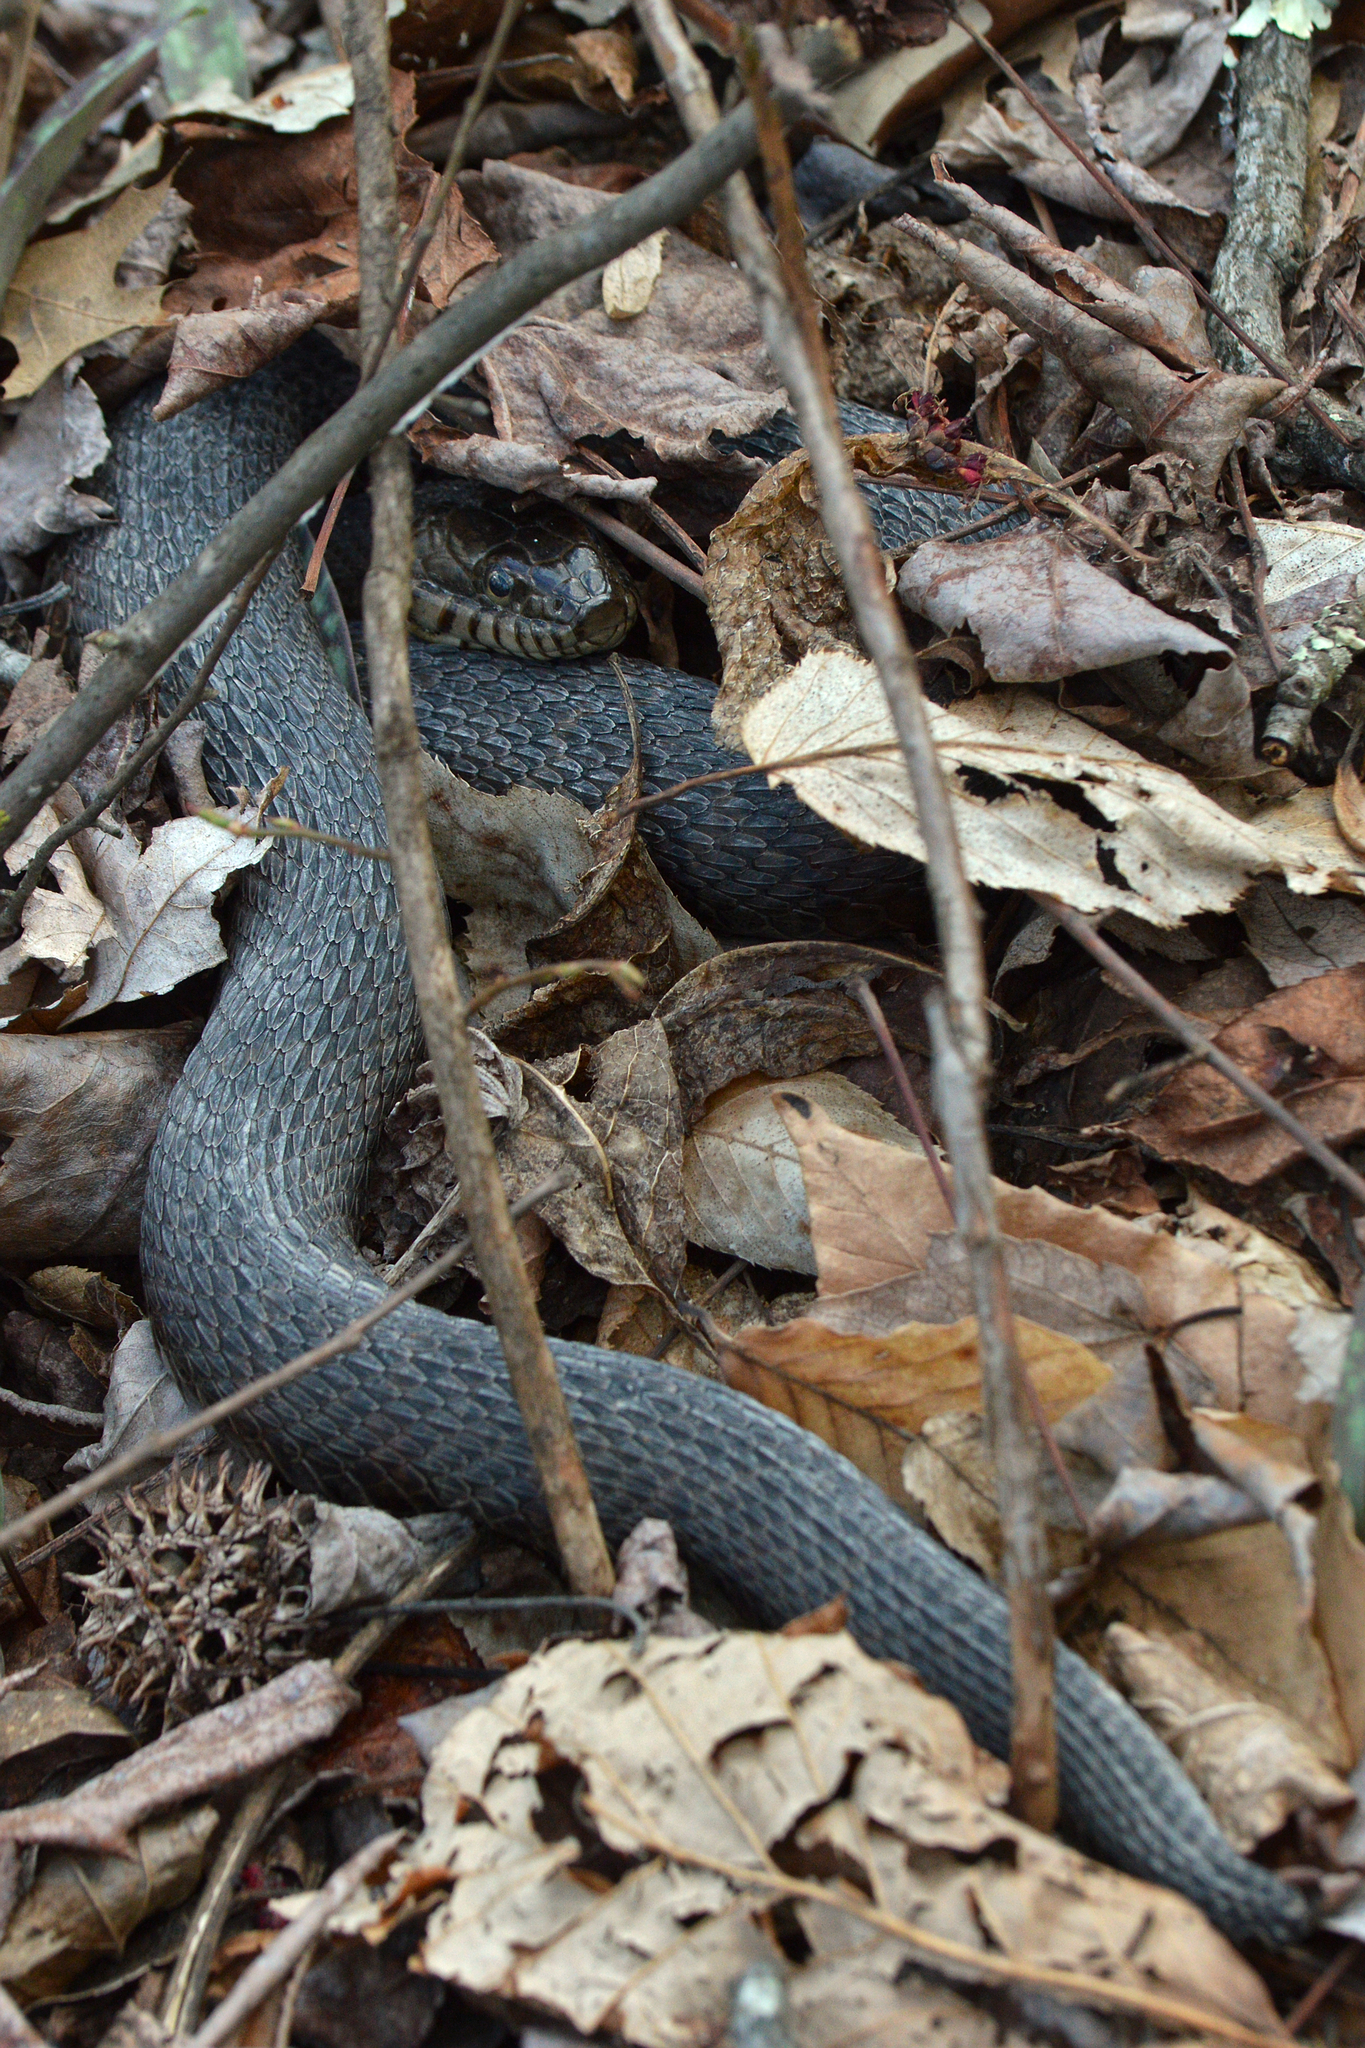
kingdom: Animalia
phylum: Chordata
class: Squamata
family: Colubridae
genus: Nerodia
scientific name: Nerodia sipedon
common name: Northern water snake
